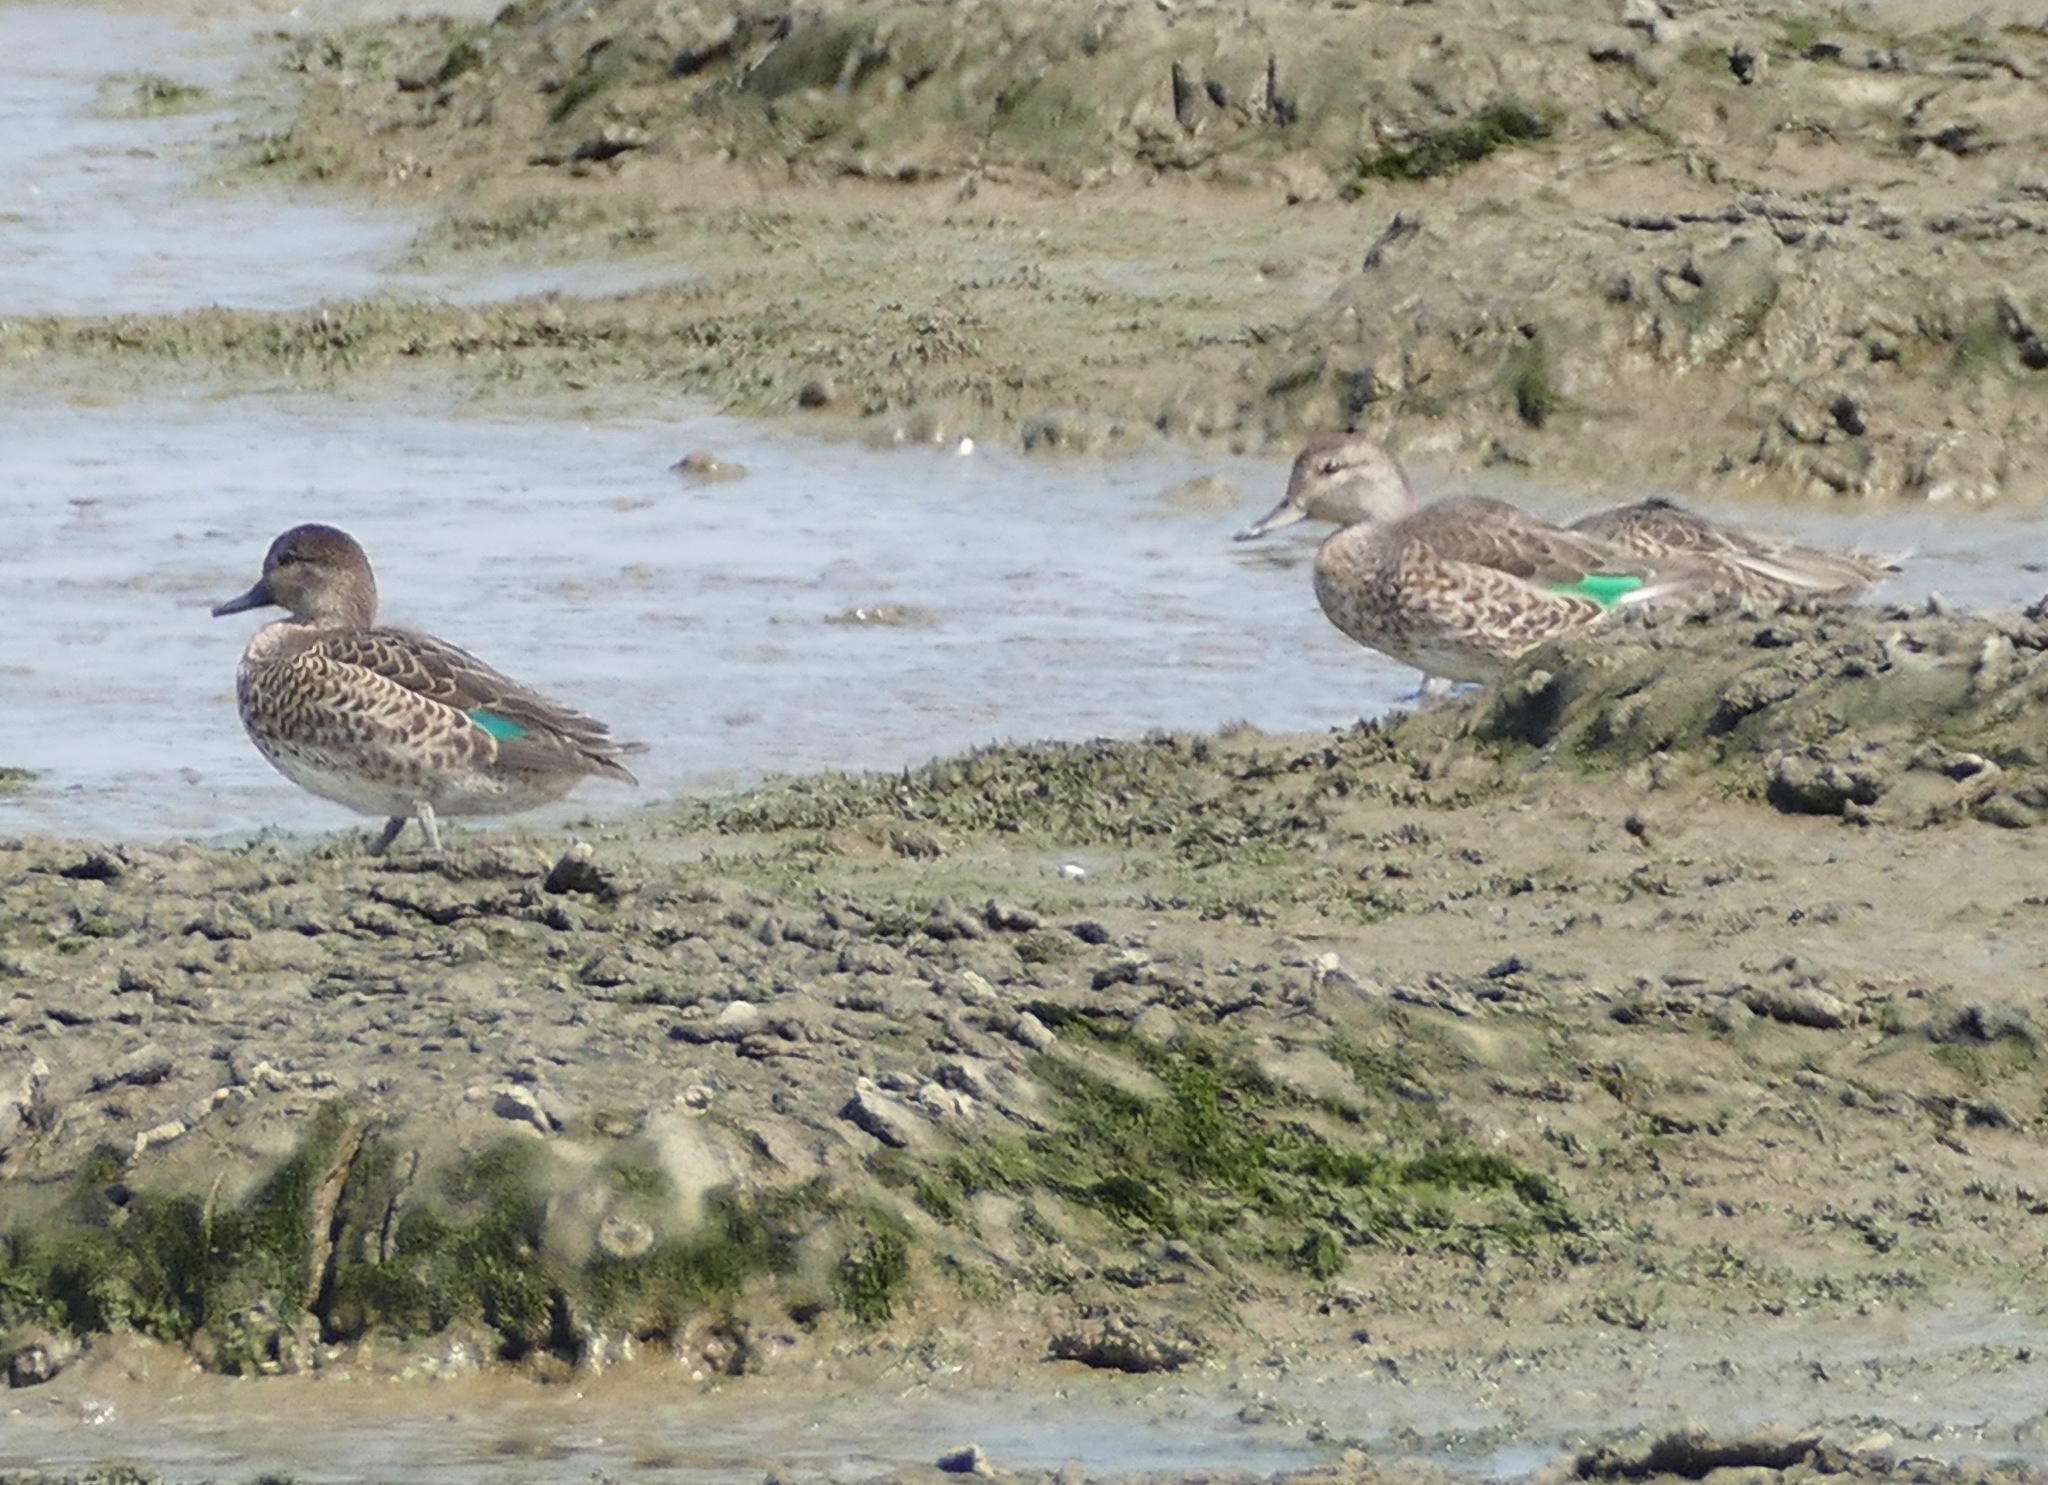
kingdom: Animalia
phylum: Chordata
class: Aves
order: Anseriformes
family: Anatidae
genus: Anas
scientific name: Anas crecca
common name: Eurasian teal
